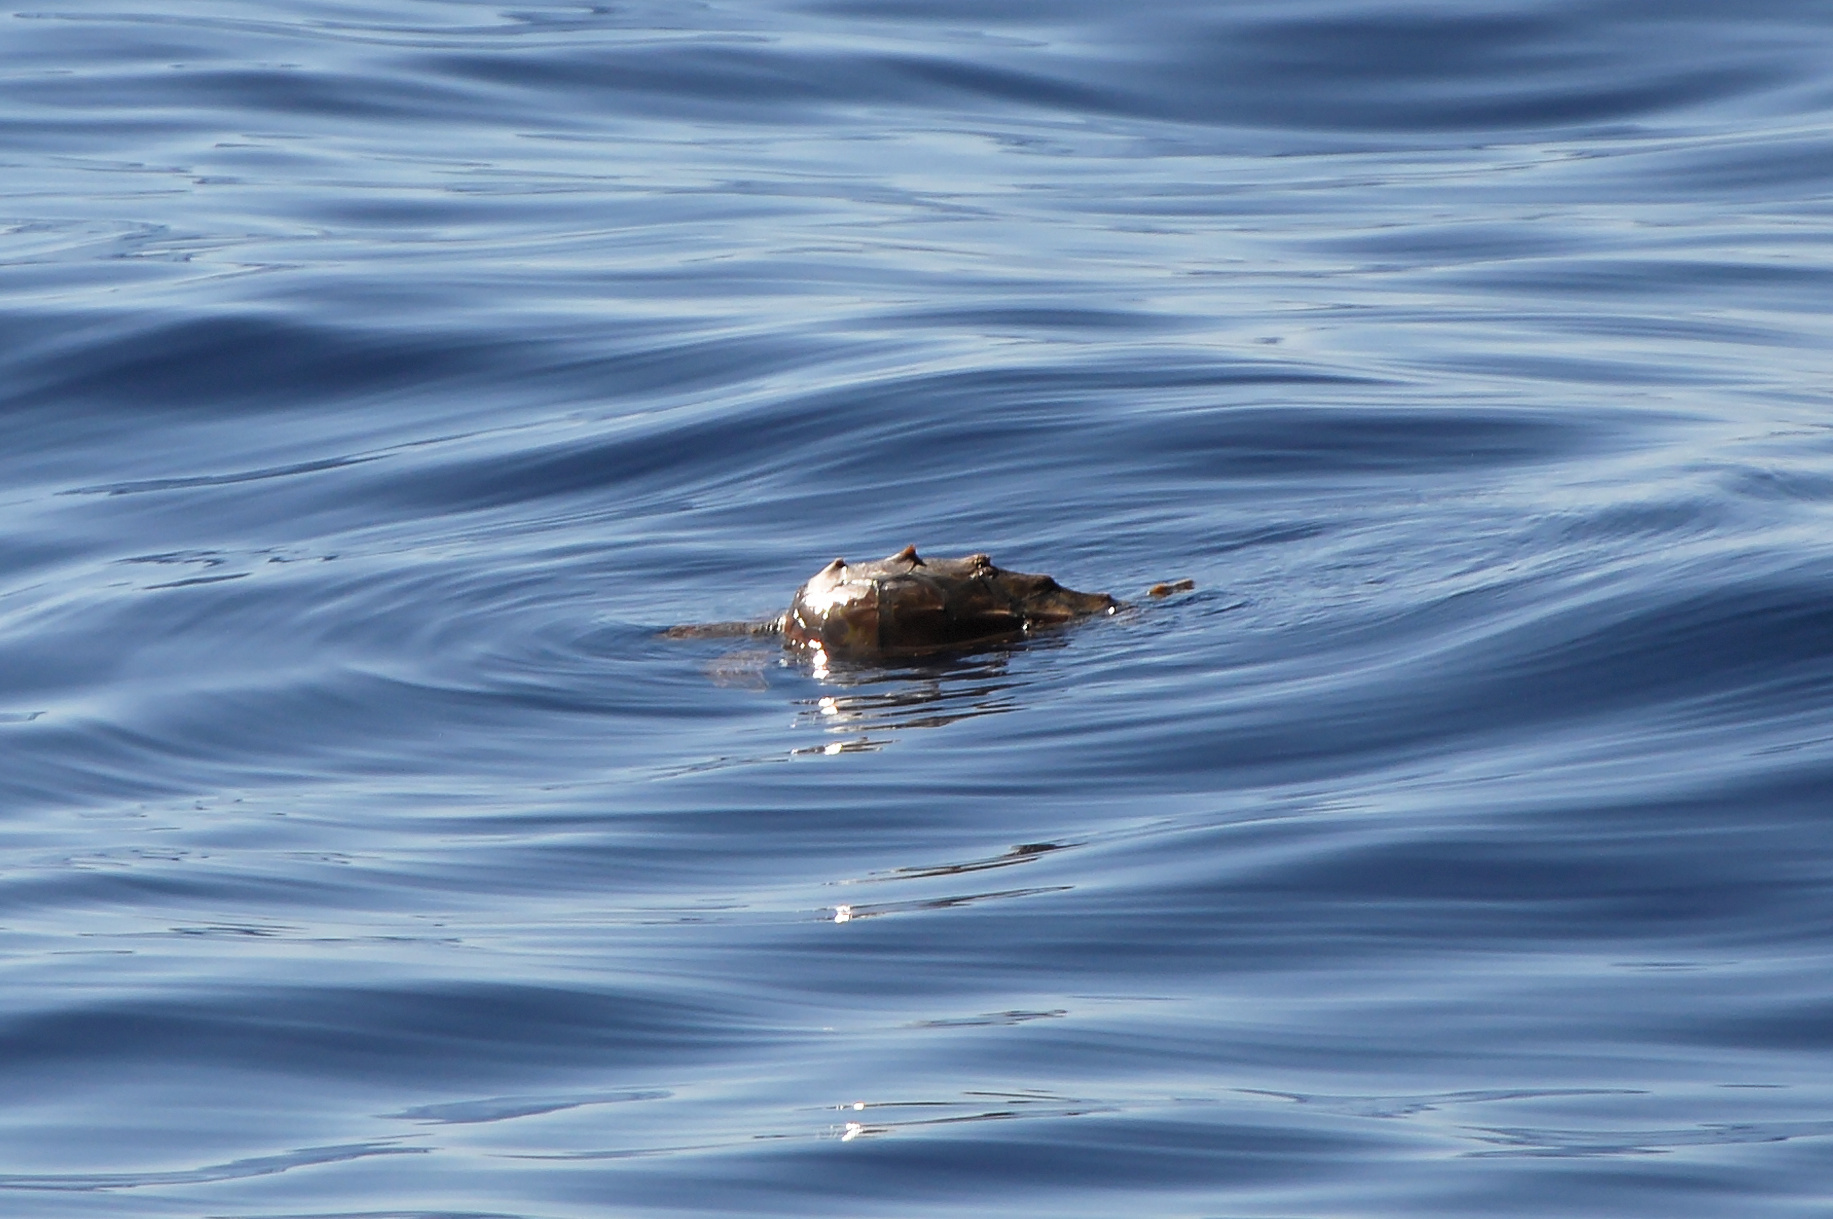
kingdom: Animalia
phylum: Chordata
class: Testudines
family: Cheloniidae
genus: Caretta
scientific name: Caretta caretta
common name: Loggerhead sea turtle
